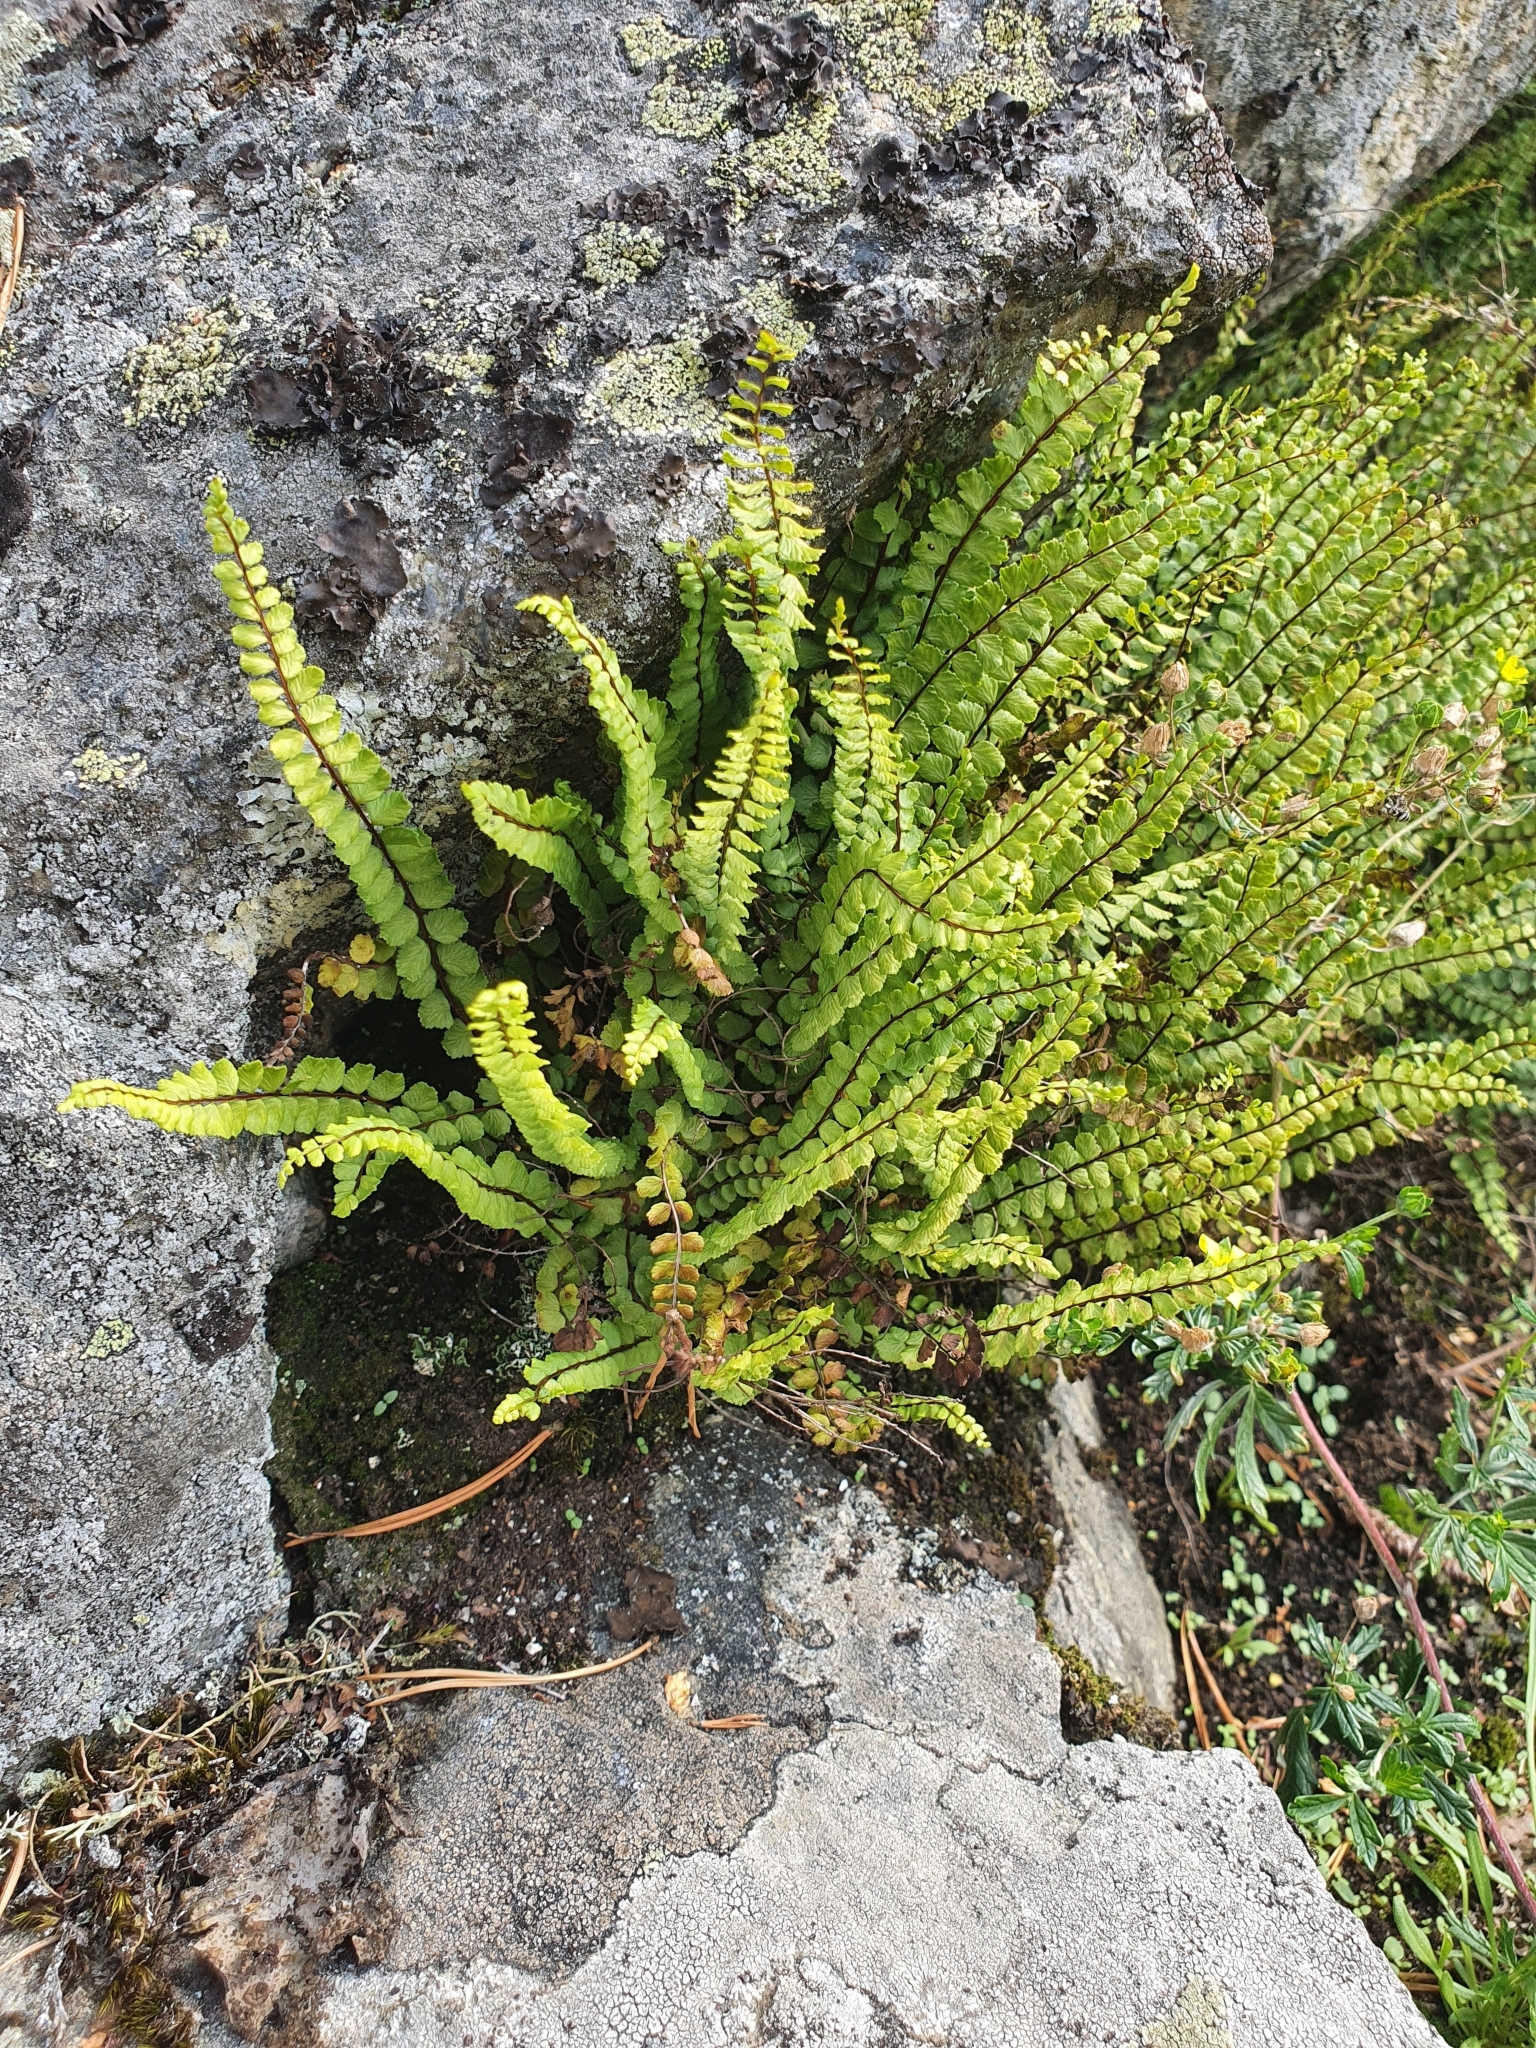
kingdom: Plantae
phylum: Tracheophyta
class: Polypodiopsida
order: Polypodiales
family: Aspleniaceae
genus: Asplenium
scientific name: Asplenium trichomanes
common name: Maidenhair spleenwort
